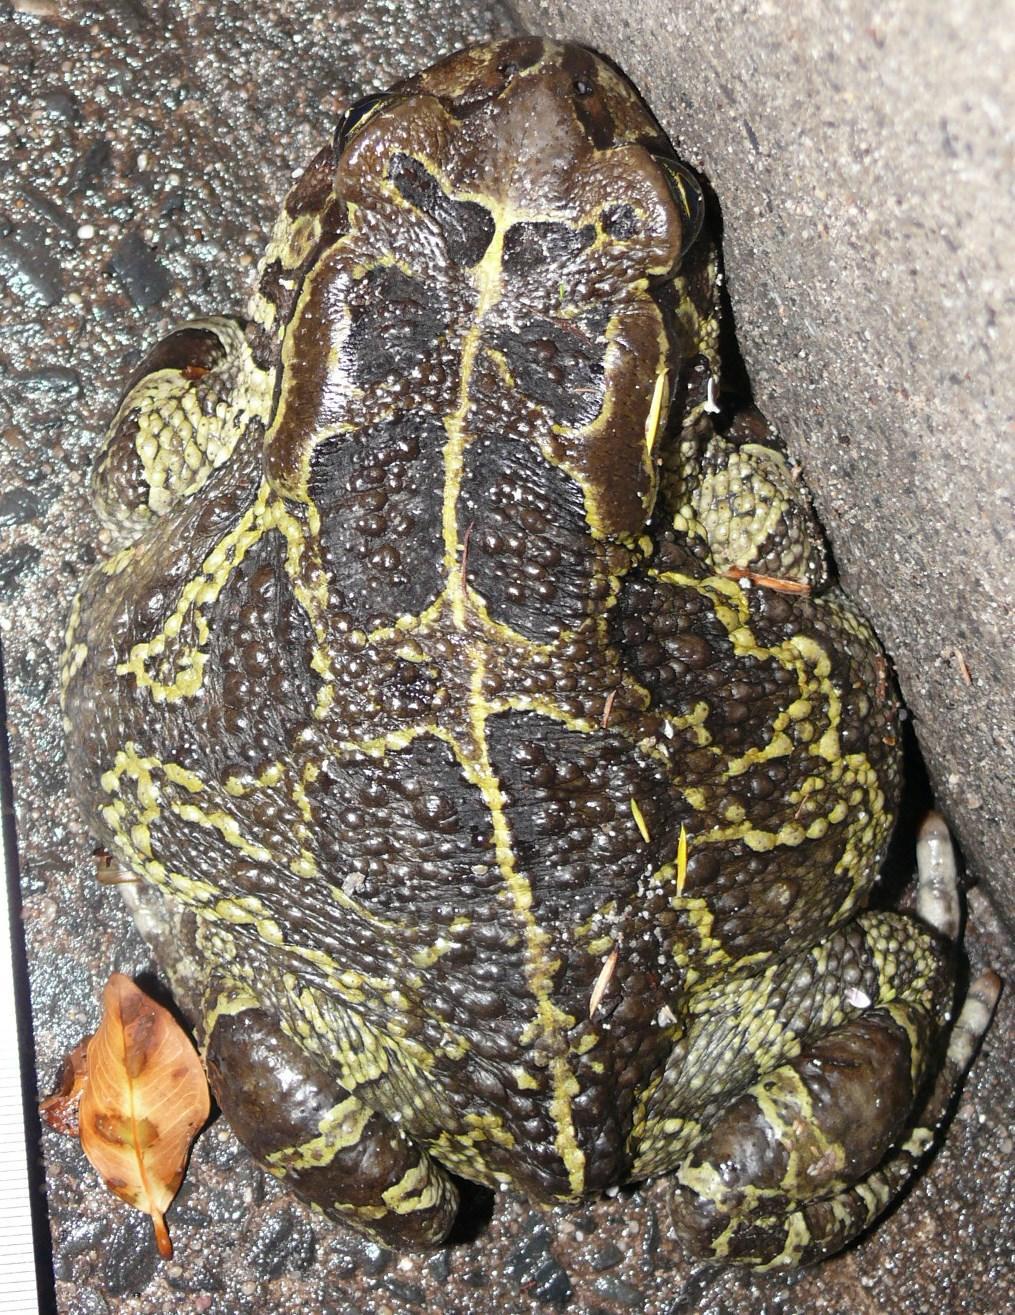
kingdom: Animalia
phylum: Chordata
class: Amphibia
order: Anura
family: Bufonidae
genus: Sclerophrys
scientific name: Sclerophrys pantherina
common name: Panther toad
